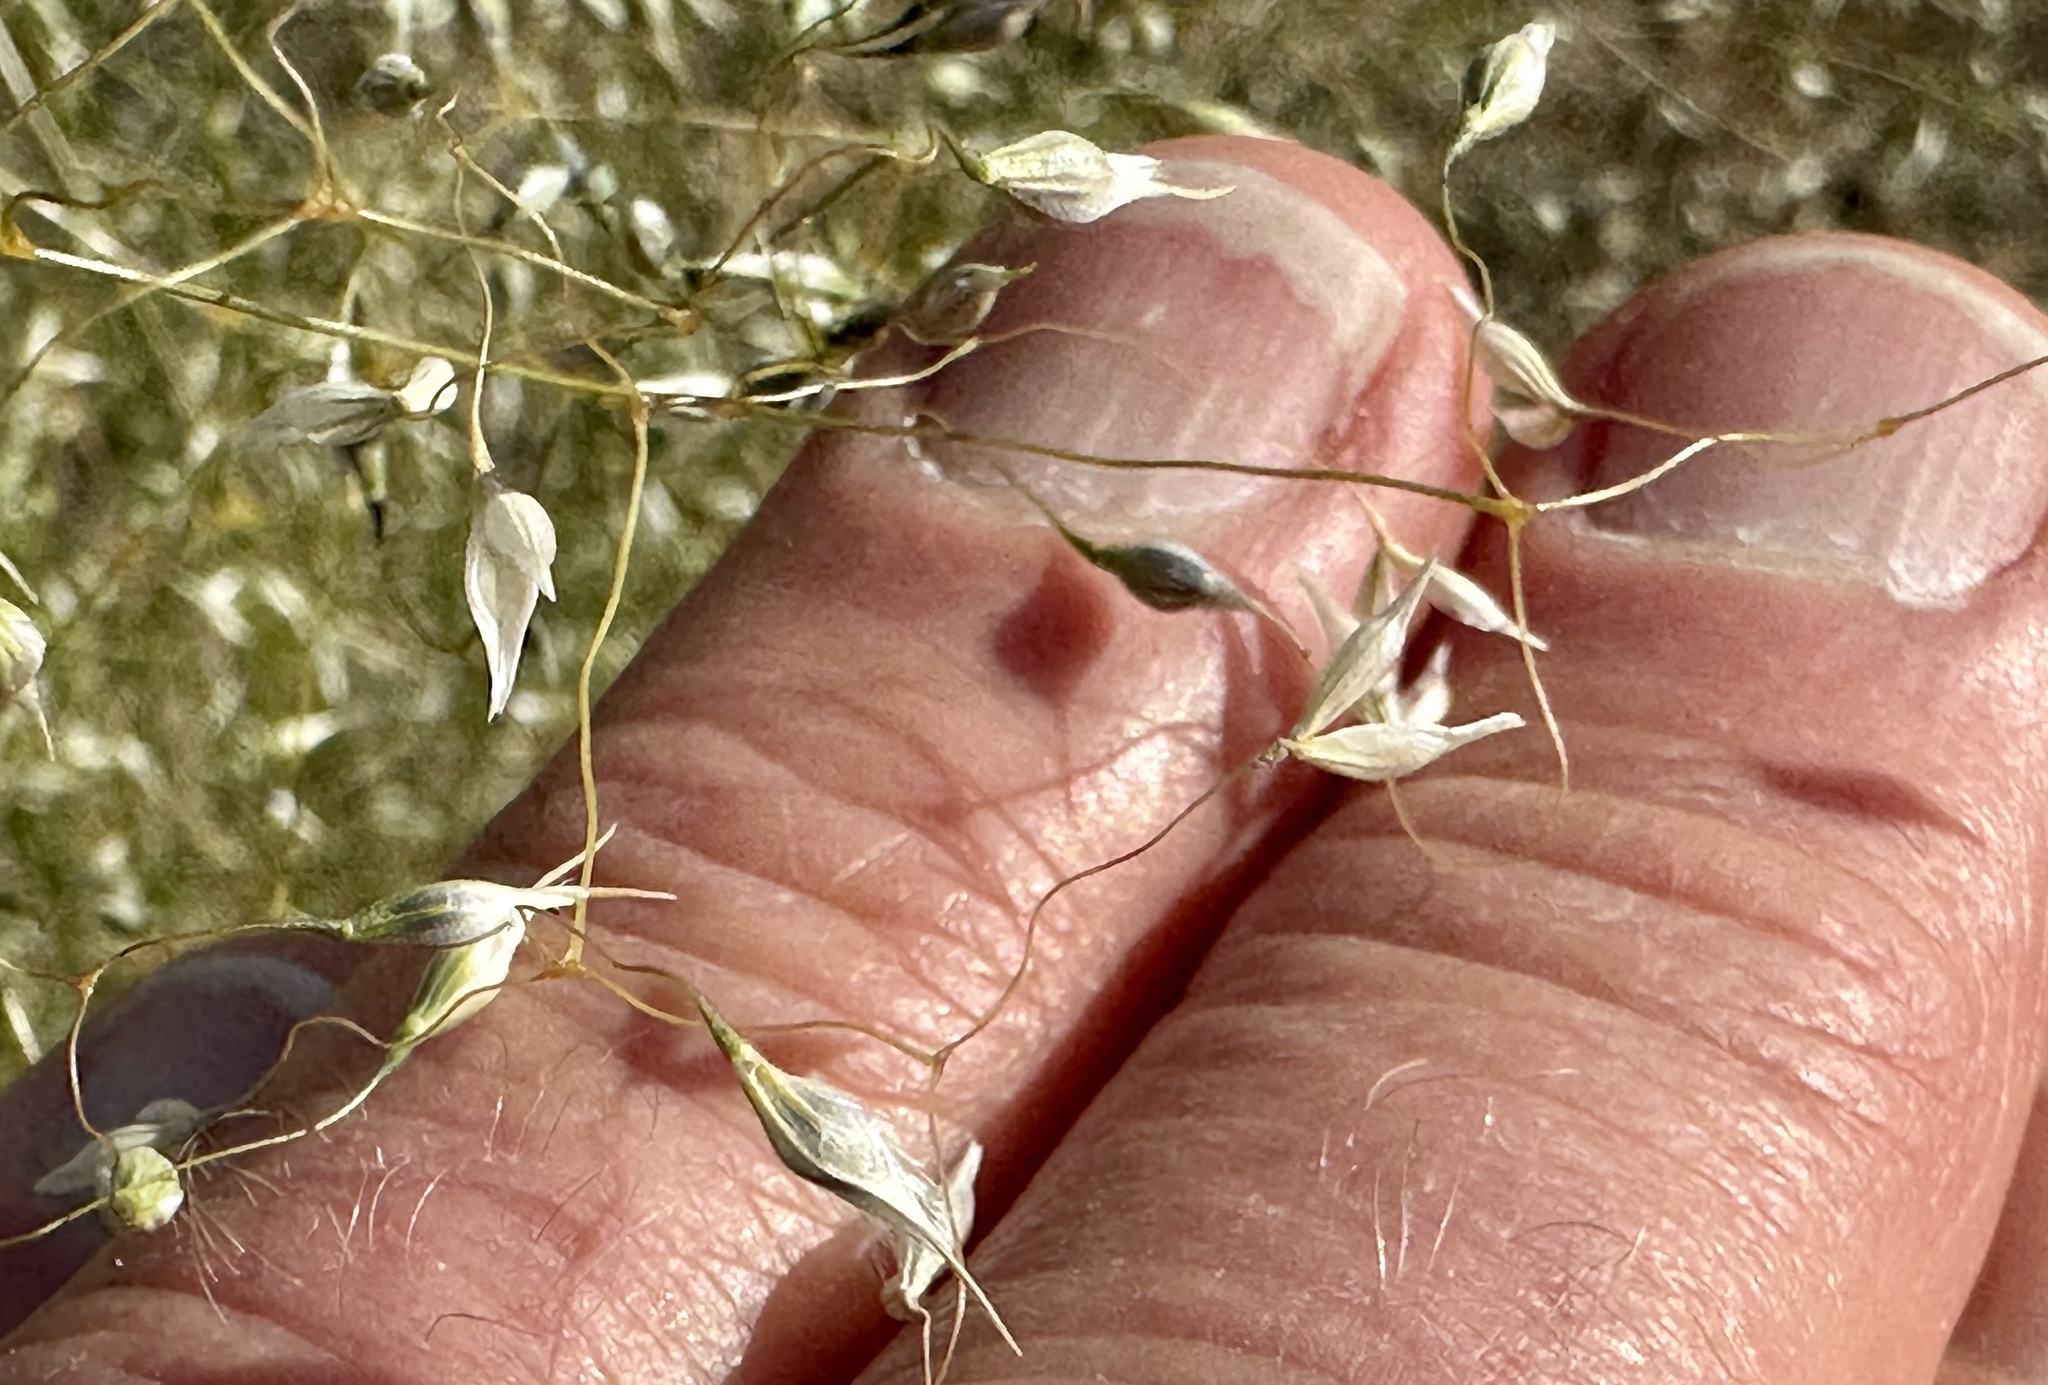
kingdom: Plantae
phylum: Tracheophyta
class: Liliopsida
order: Poales
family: Poaceae
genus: Eriocoma
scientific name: Eriocoma hymenoides
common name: Indian mountain ricegrass
